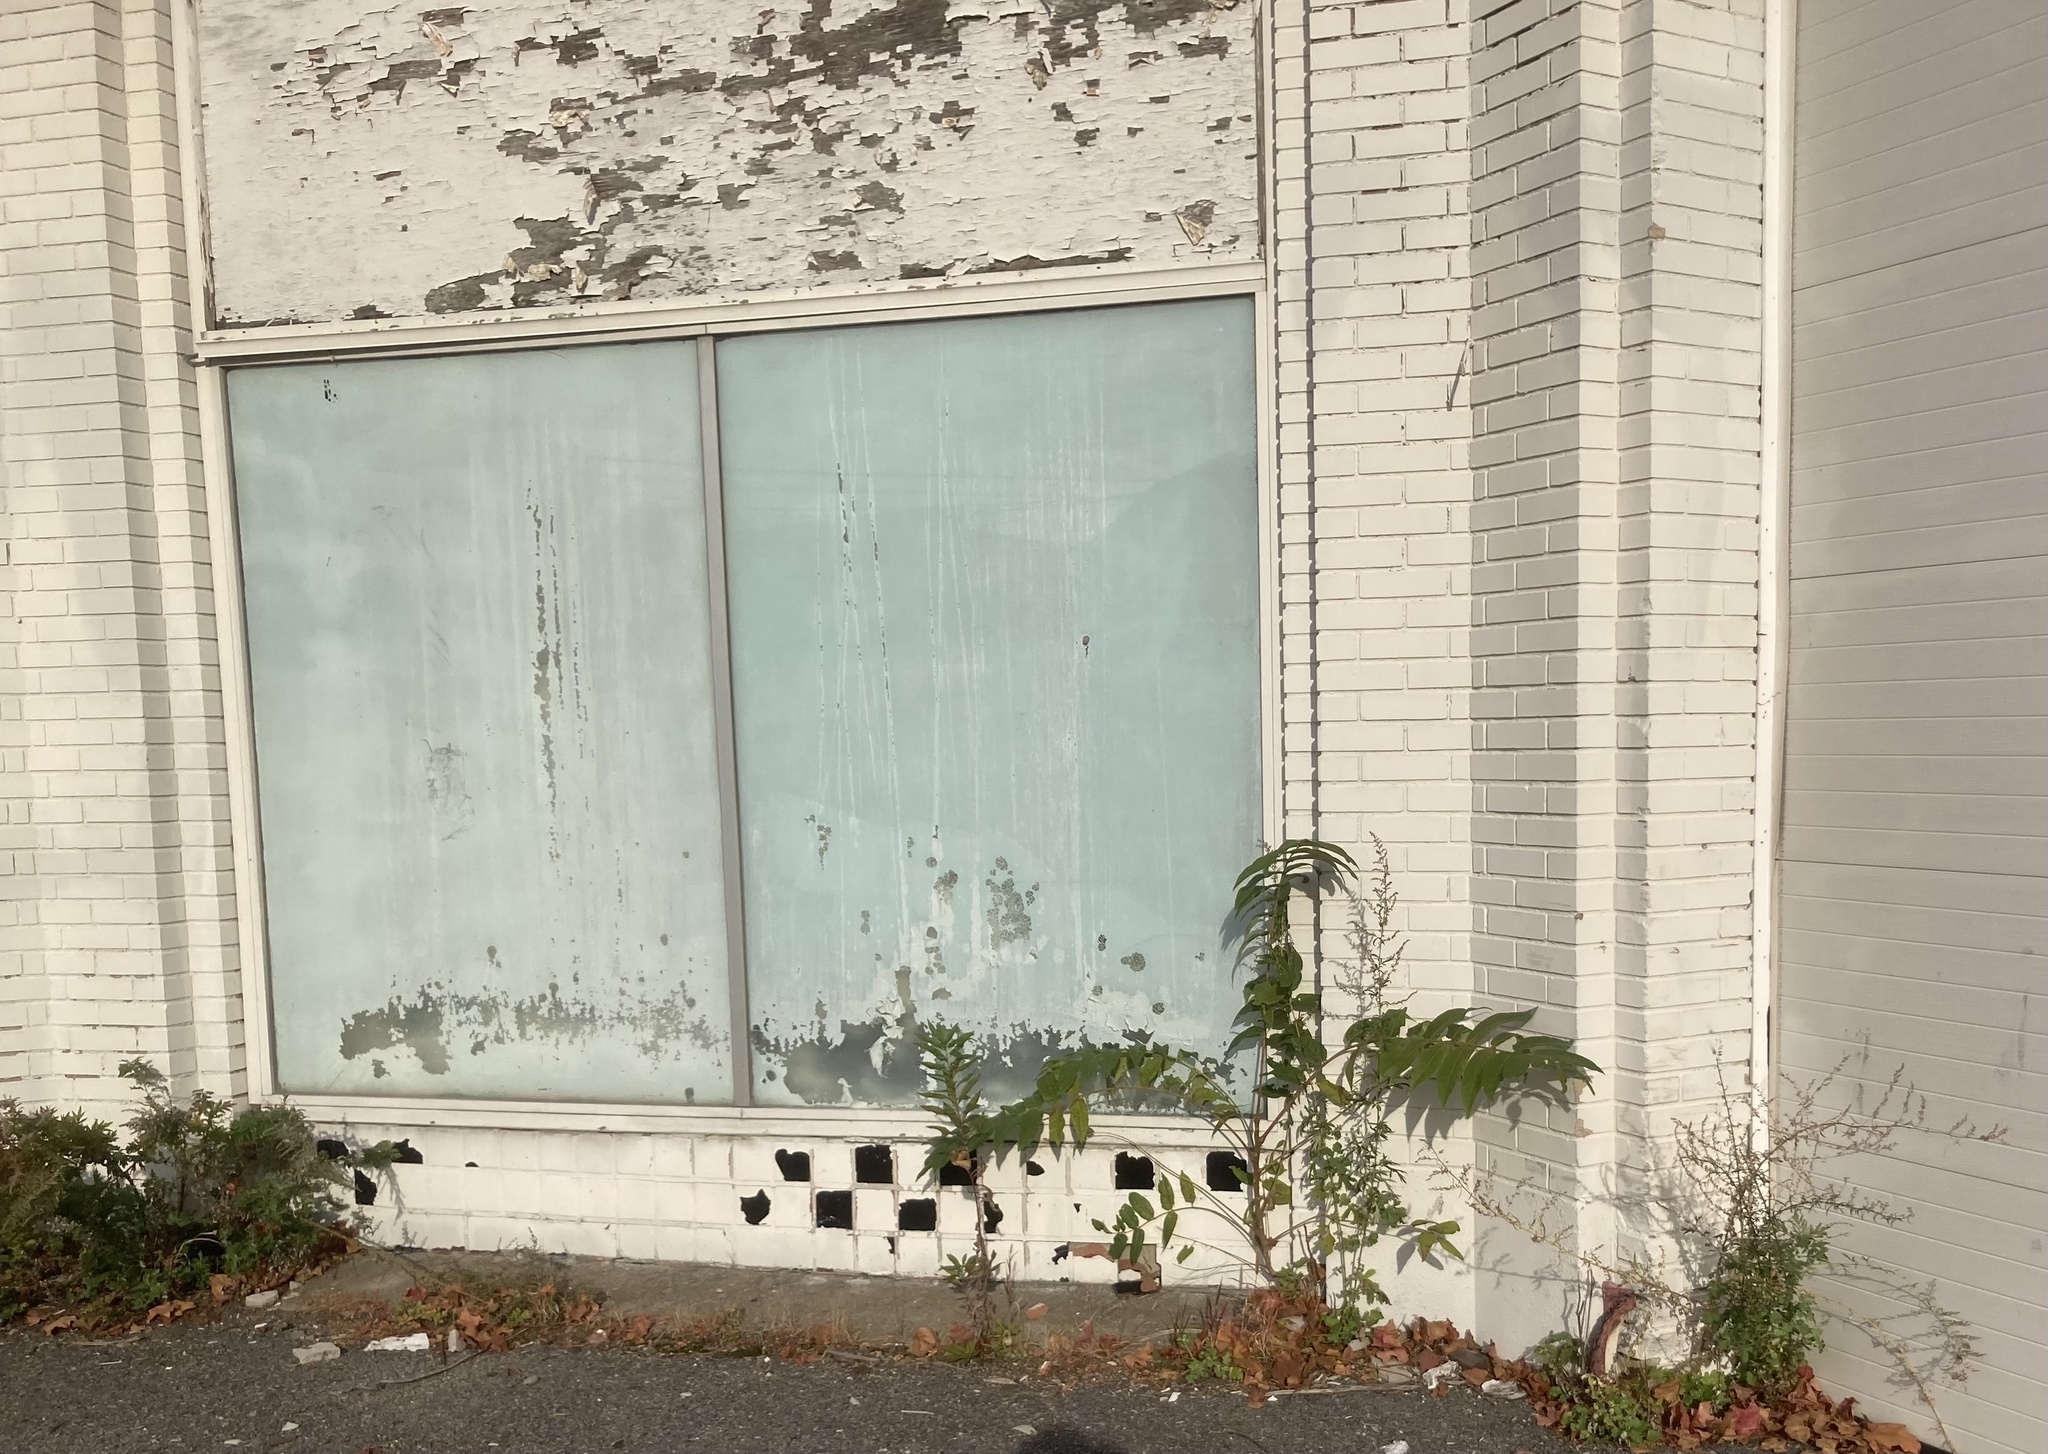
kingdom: Plantae
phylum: Tracheophyta
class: Magnoliopsida
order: Sapindales
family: Simaroubaceae
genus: Ailanthus
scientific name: Ailanthus altissima
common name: Tree-of-heaven
